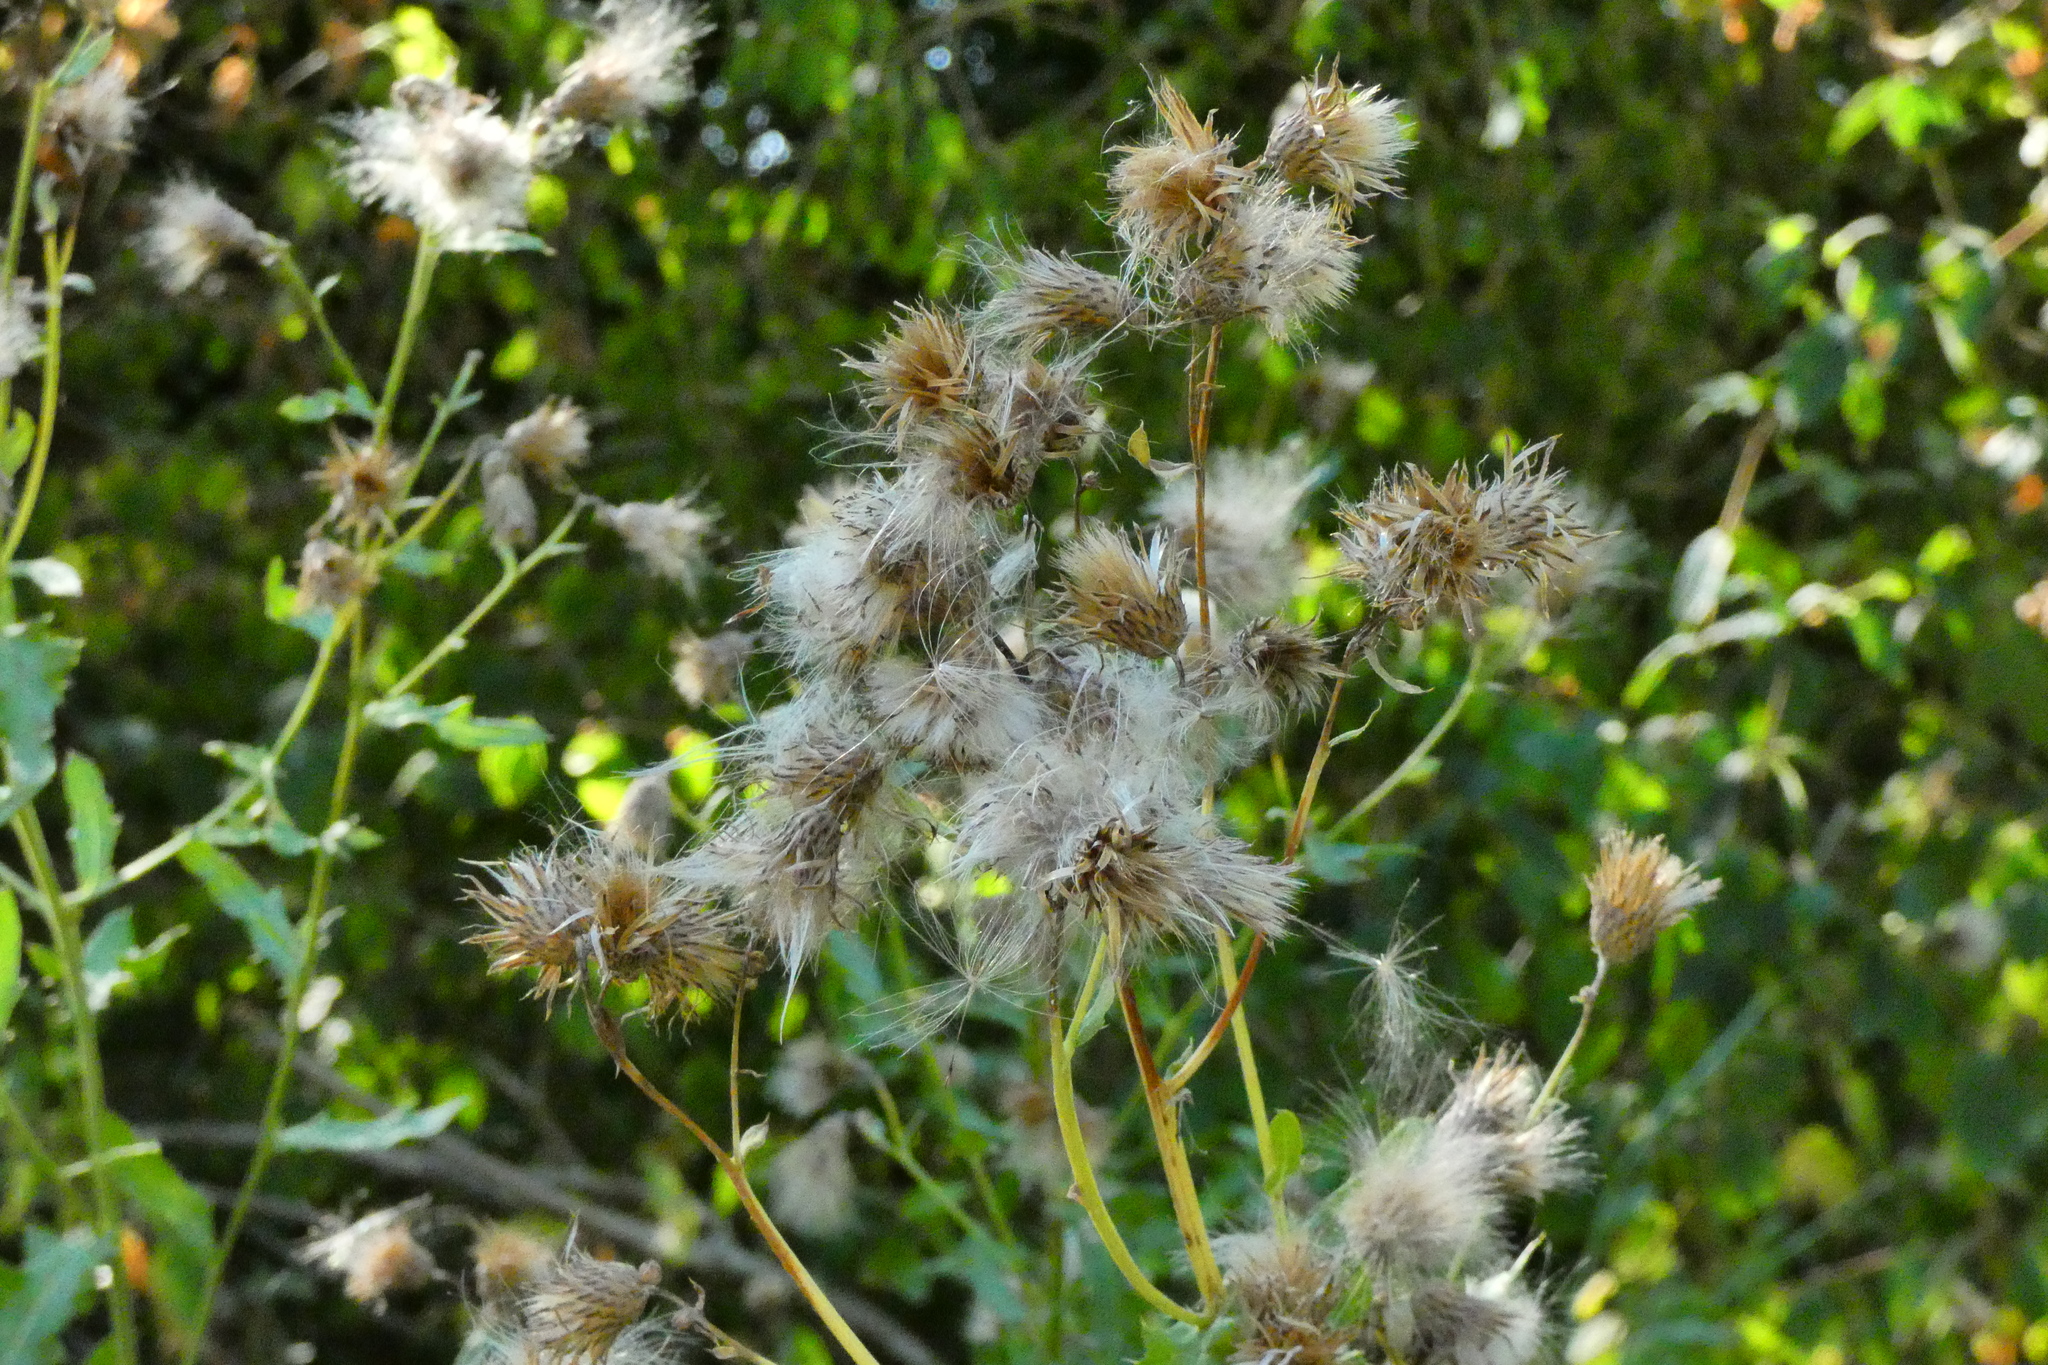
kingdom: Plantae
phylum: Tracheophyta
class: Magnoliopsida
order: Asterales
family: Asteraceae
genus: Cirsium
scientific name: Cirsium arvense
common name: Creeping thistle
